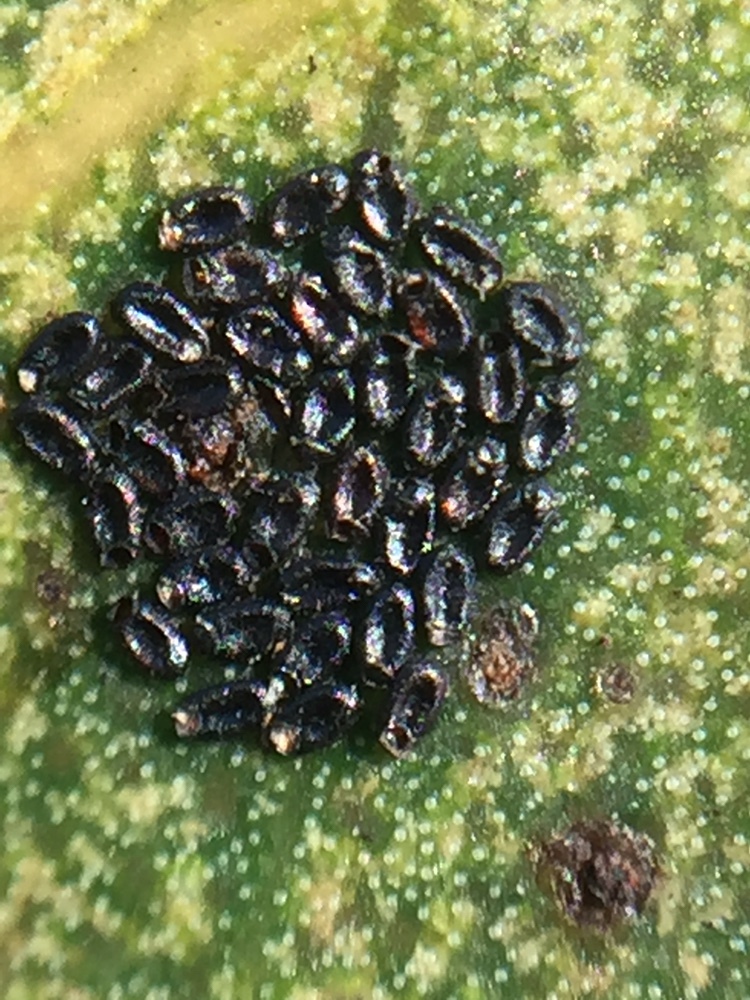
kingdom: Animalia
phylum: Arthropoda
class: Insecta
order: Hemiptera
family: Thaumastocoridae
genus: Thaumastocoris
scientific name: Thaumastocoris peregrinus
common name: Bronze bug
